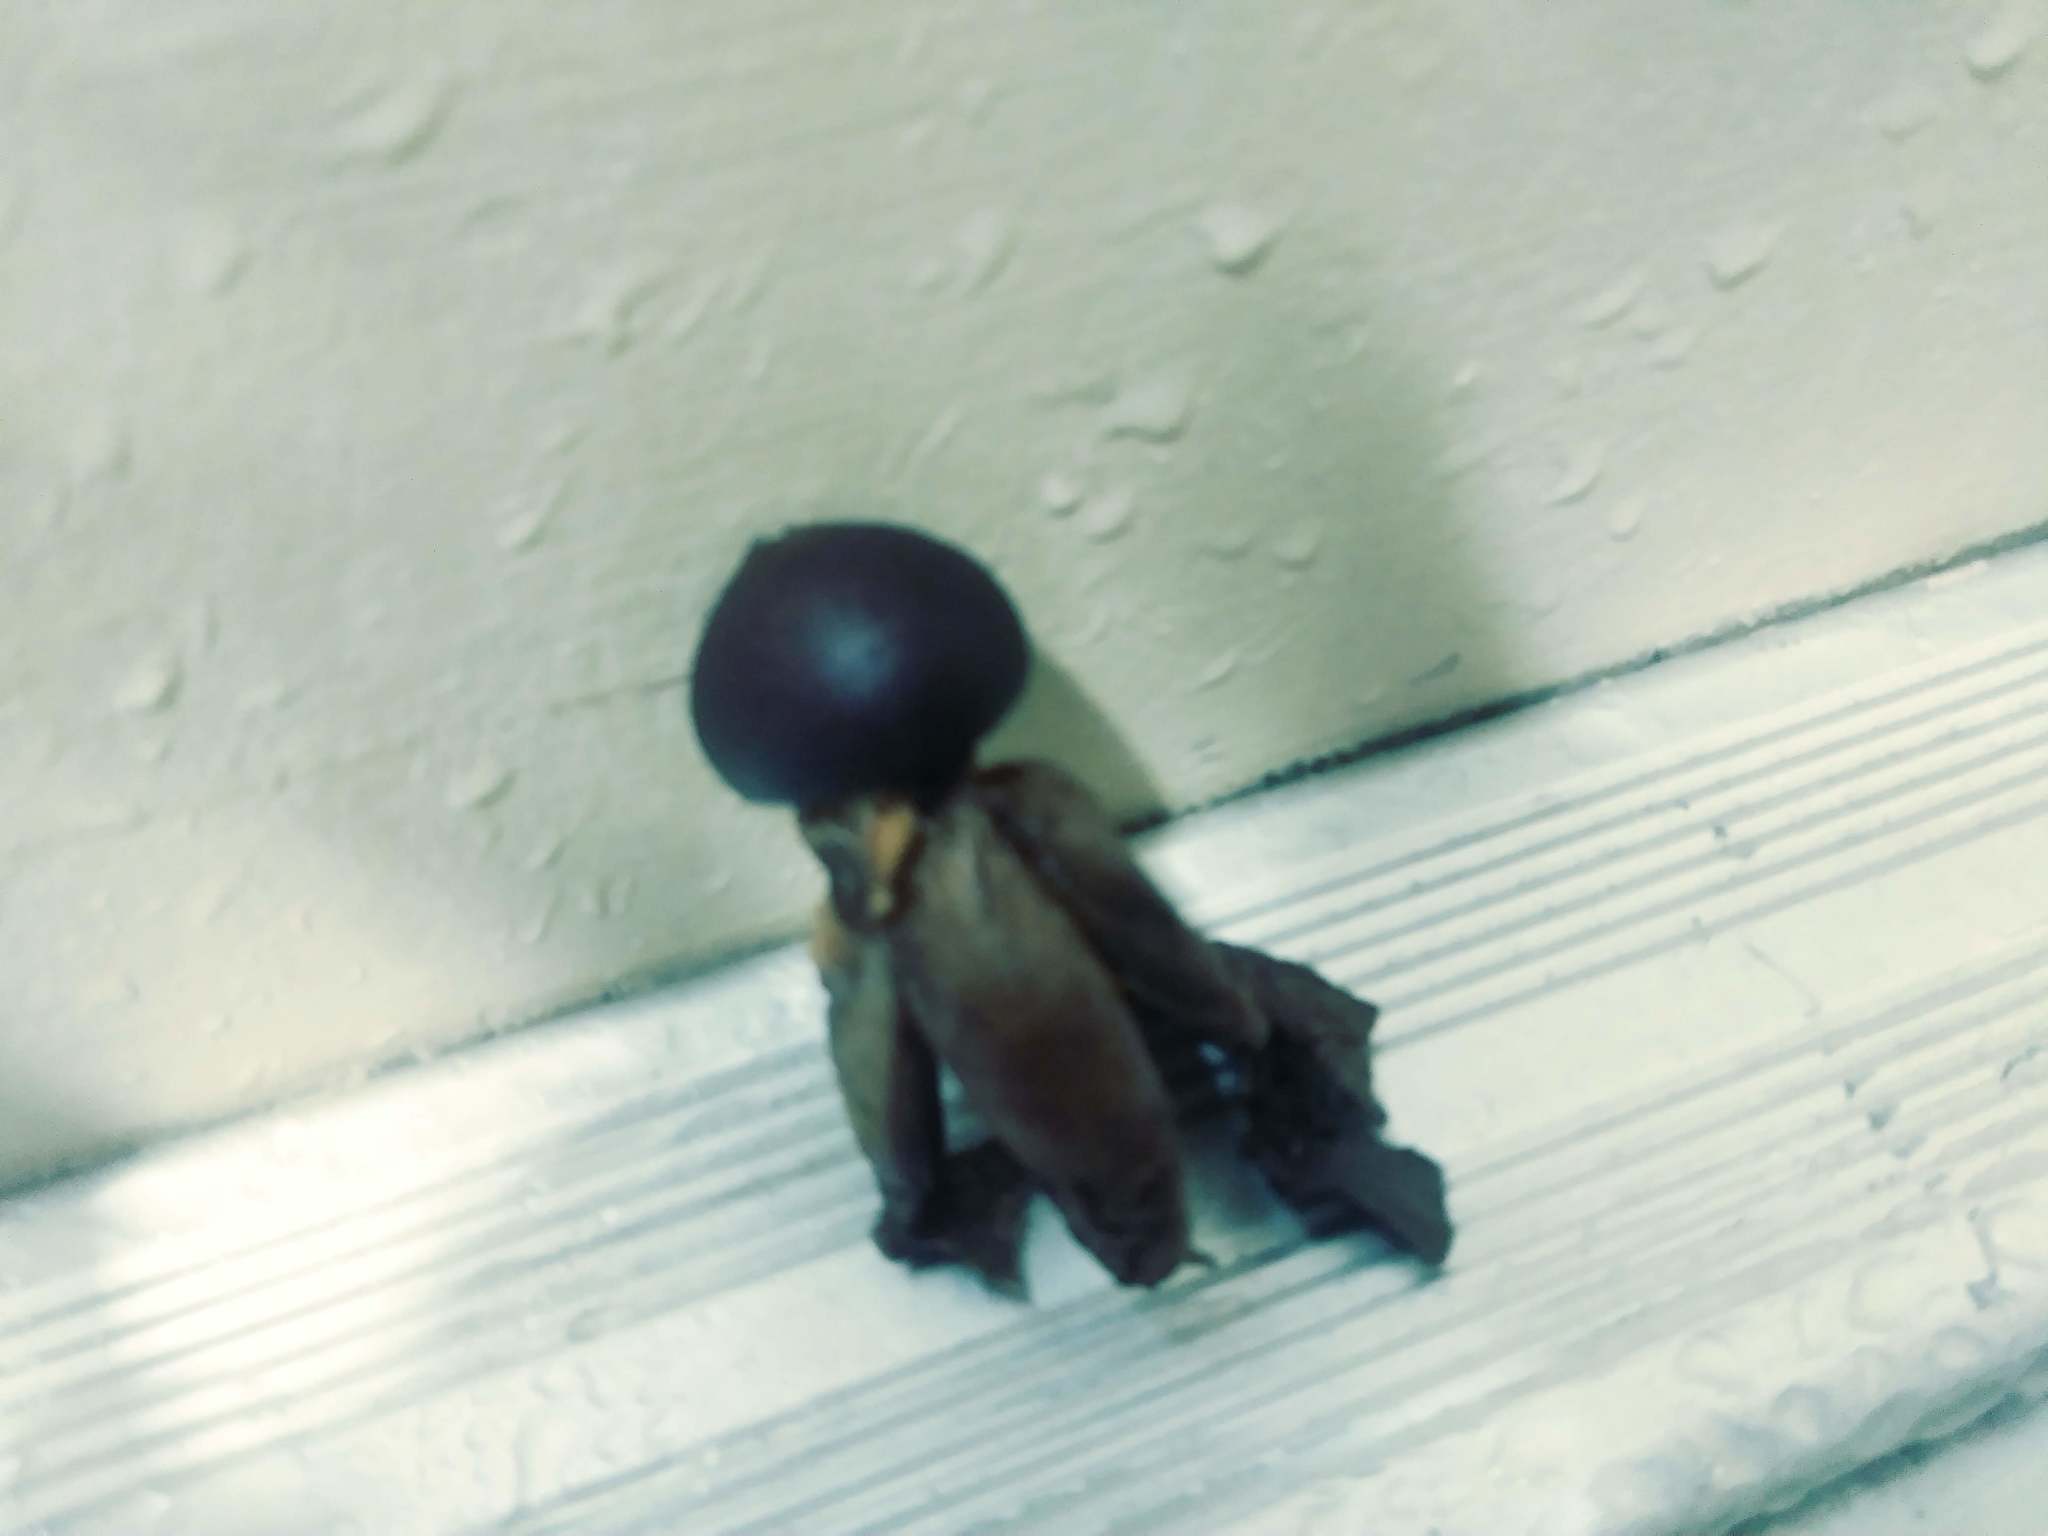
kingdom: Fungi
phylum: Basidiomycota
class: Agaricomycetes
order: Geastrales
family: Geastraceae
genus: Geastrum
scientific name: Geastrum fornicatum
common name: Arched earthstar
